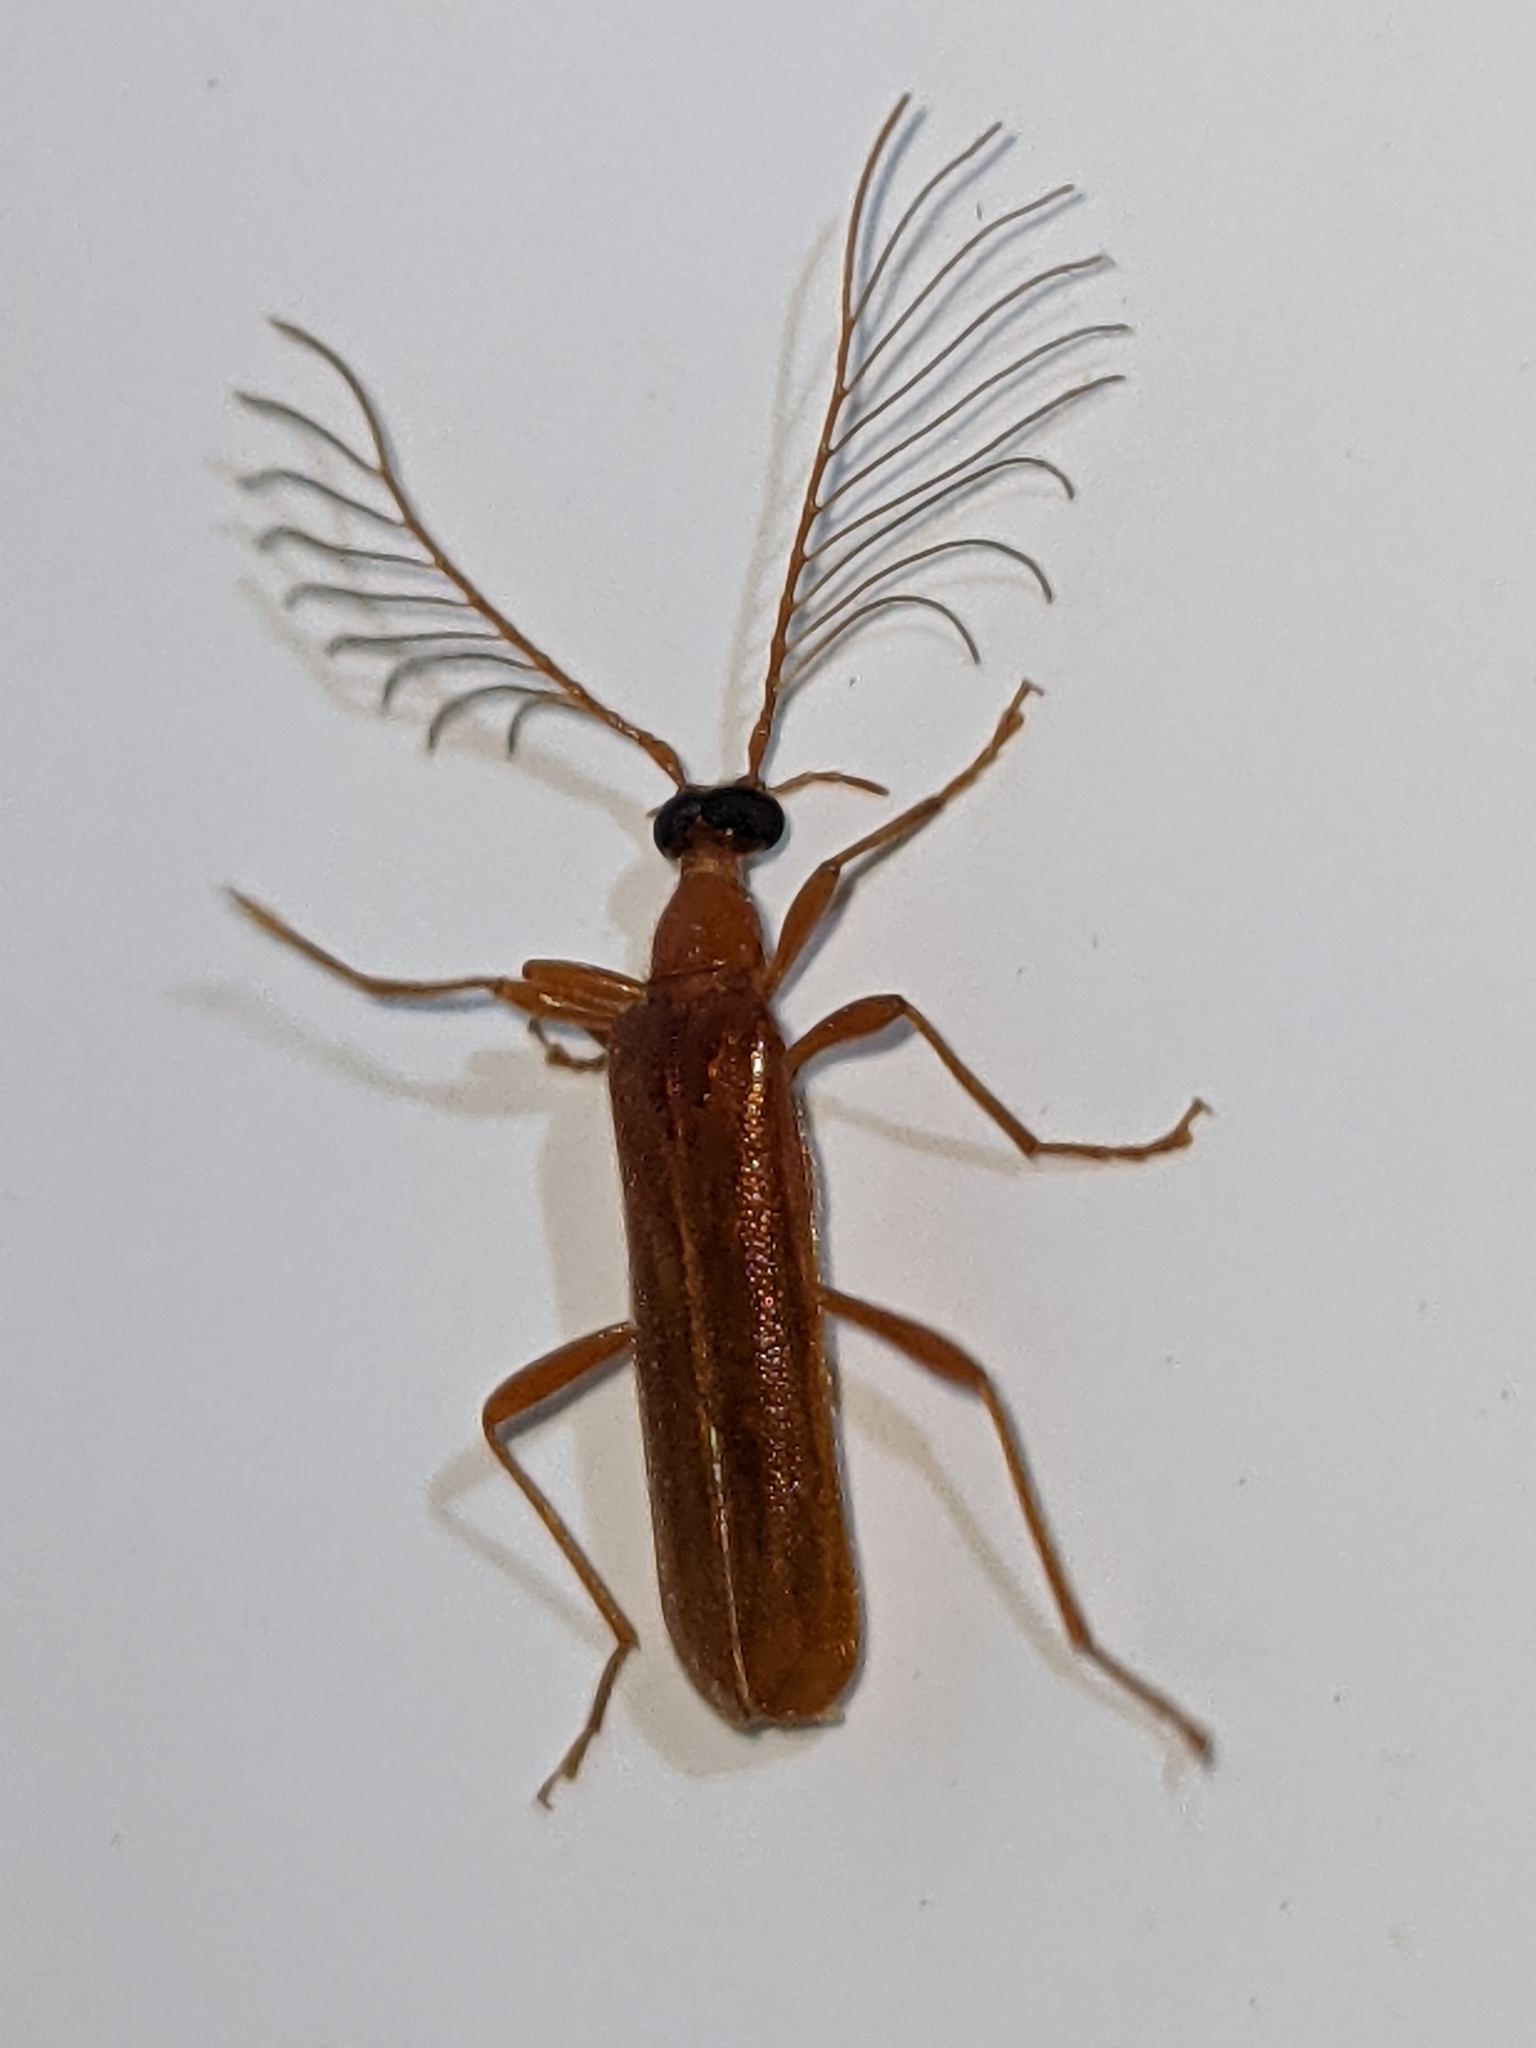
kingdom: Animalia
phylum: Arthropoda
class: Insecta
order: Coleoptera
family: Pyrochroidae
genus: Dendroides
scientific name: Dendroides concolor
